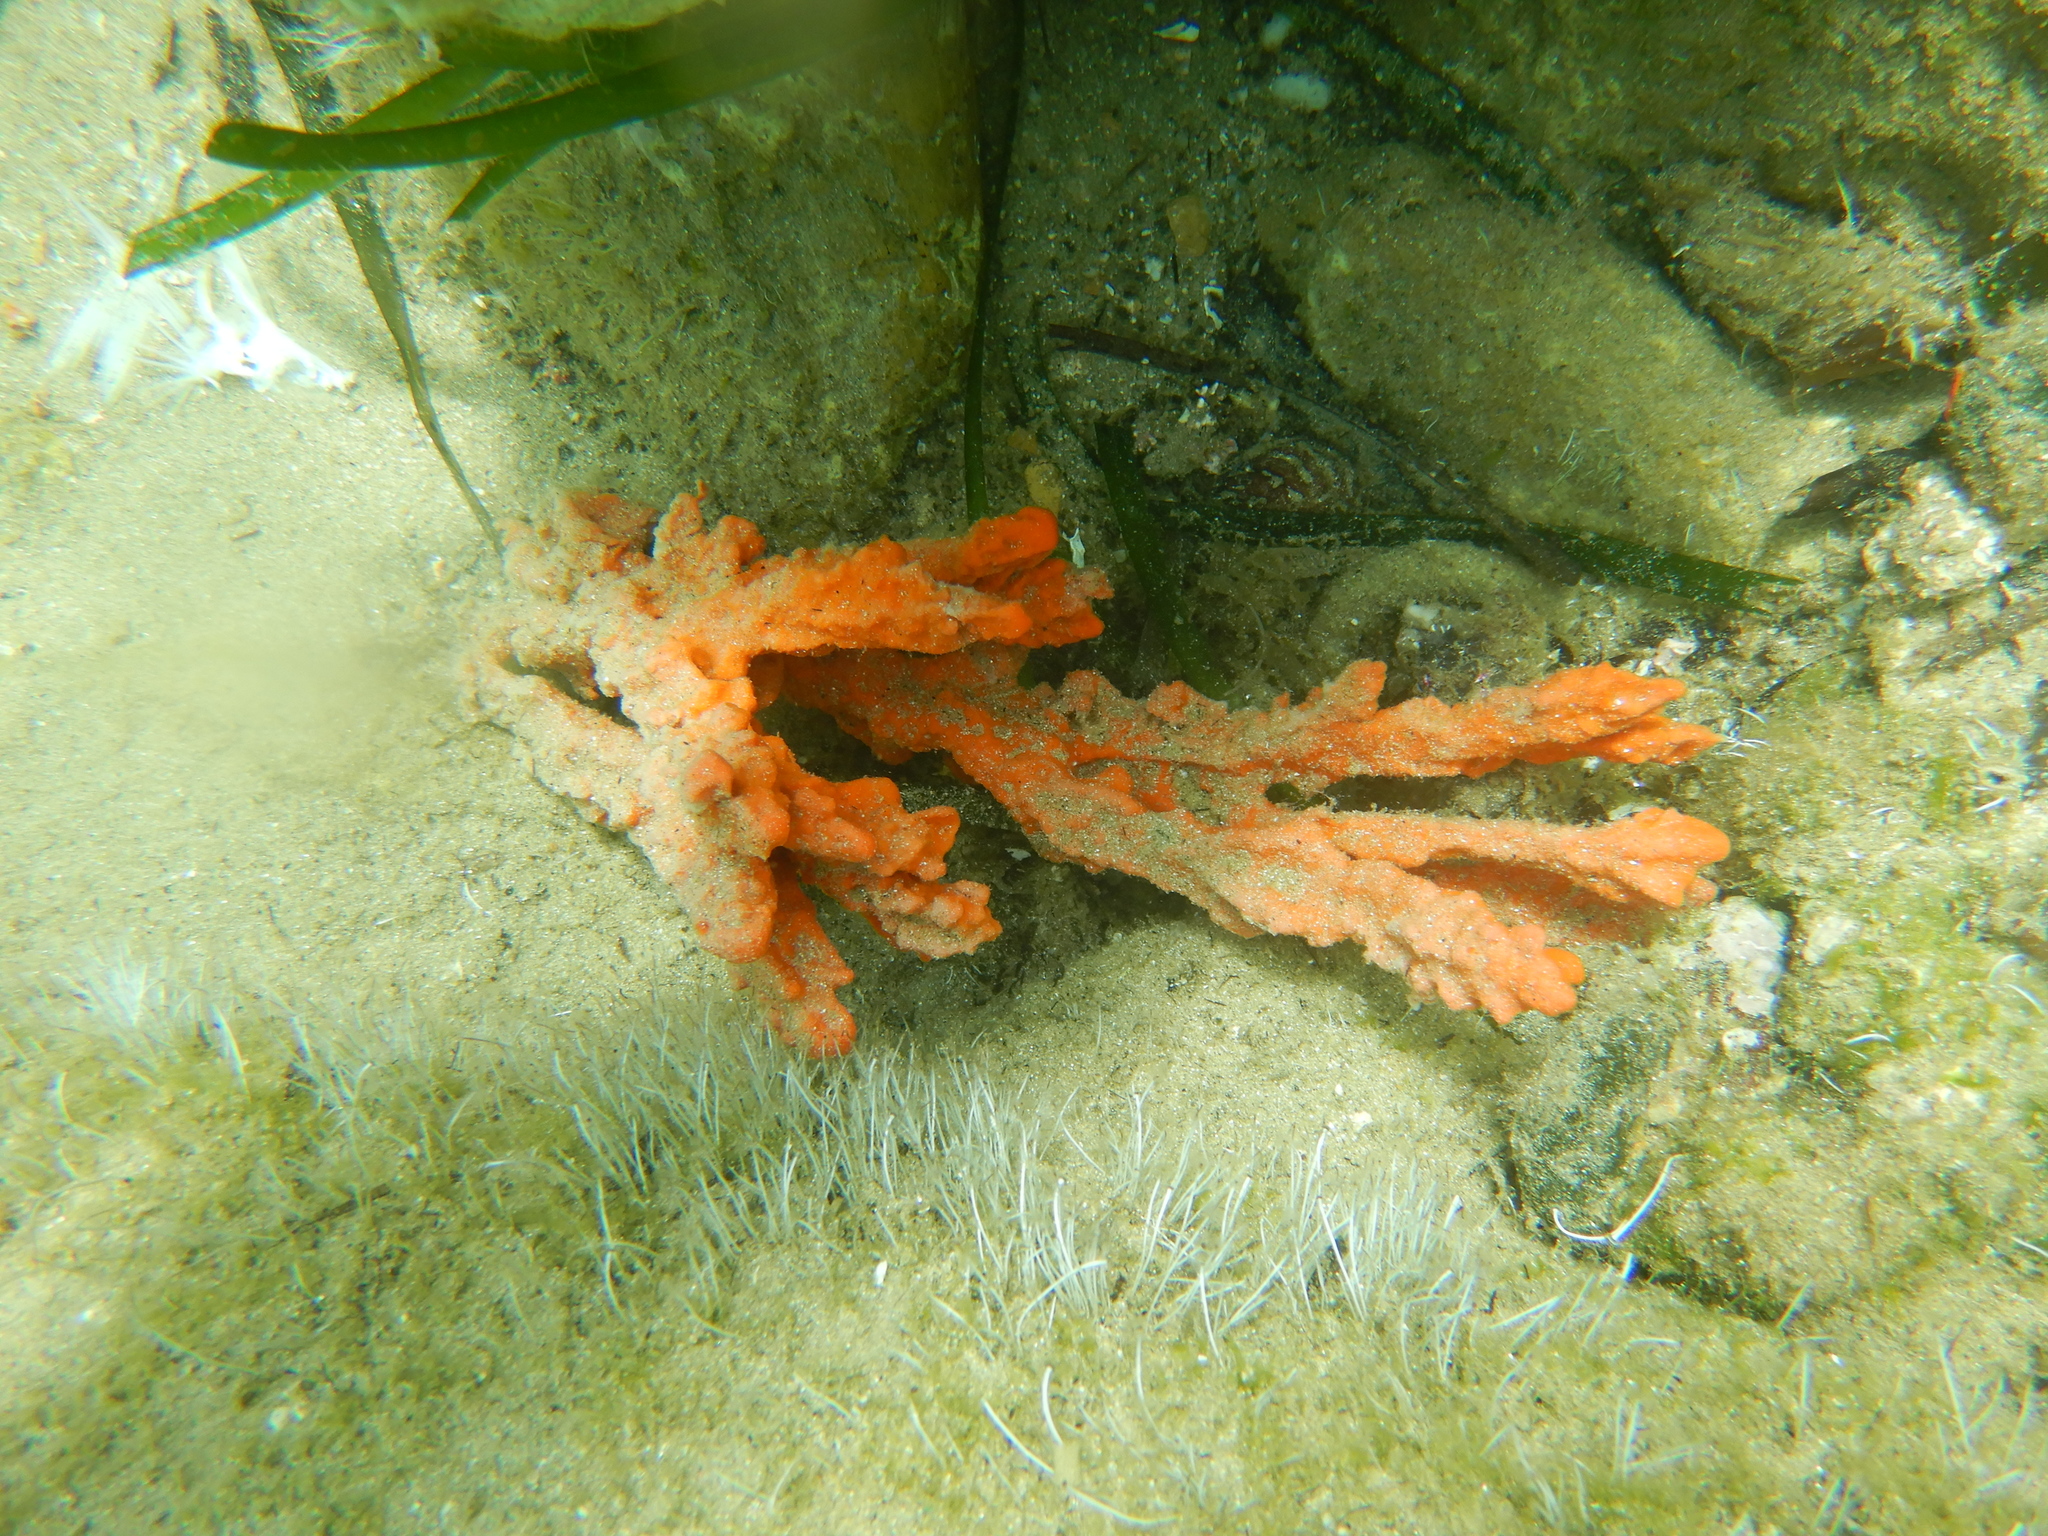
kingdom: Animalia
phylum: Porifera
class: Demospongiae
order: Axinellida
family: Axinellidae
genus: Axinella
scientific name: Axinella cannabina
